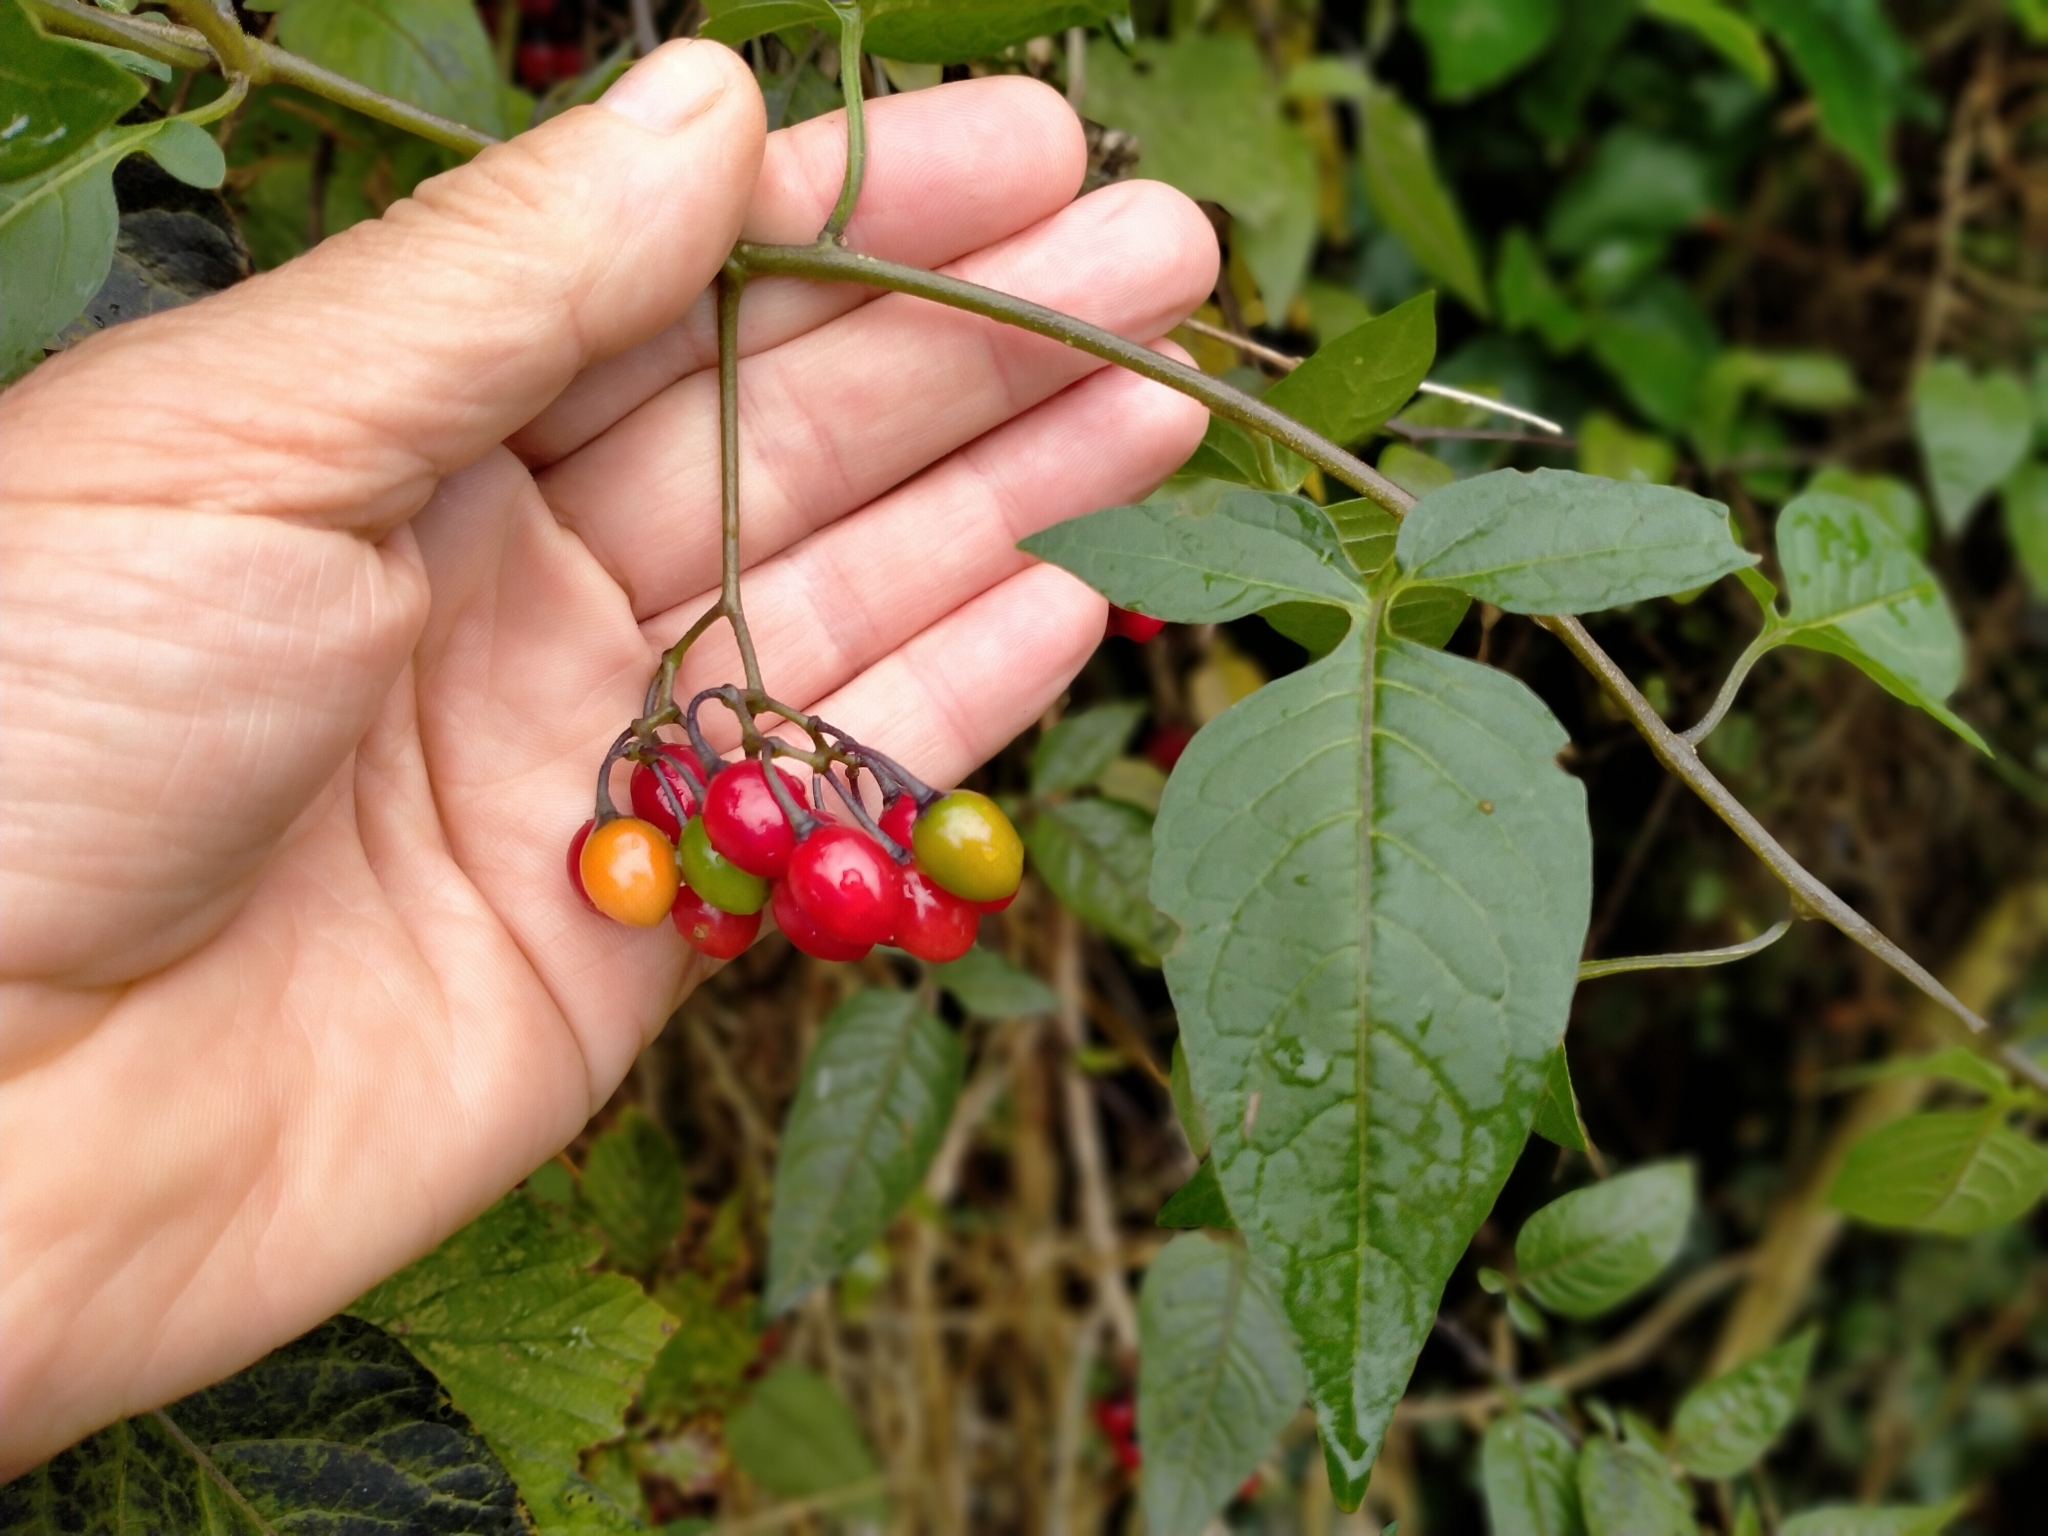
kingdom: Plantae
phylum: Tracheophyta
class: Magnoliopsida
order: Solanales
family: Solanaceae
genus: Solanum
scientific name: Solanum dulcamara
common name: Climbing nightshade
